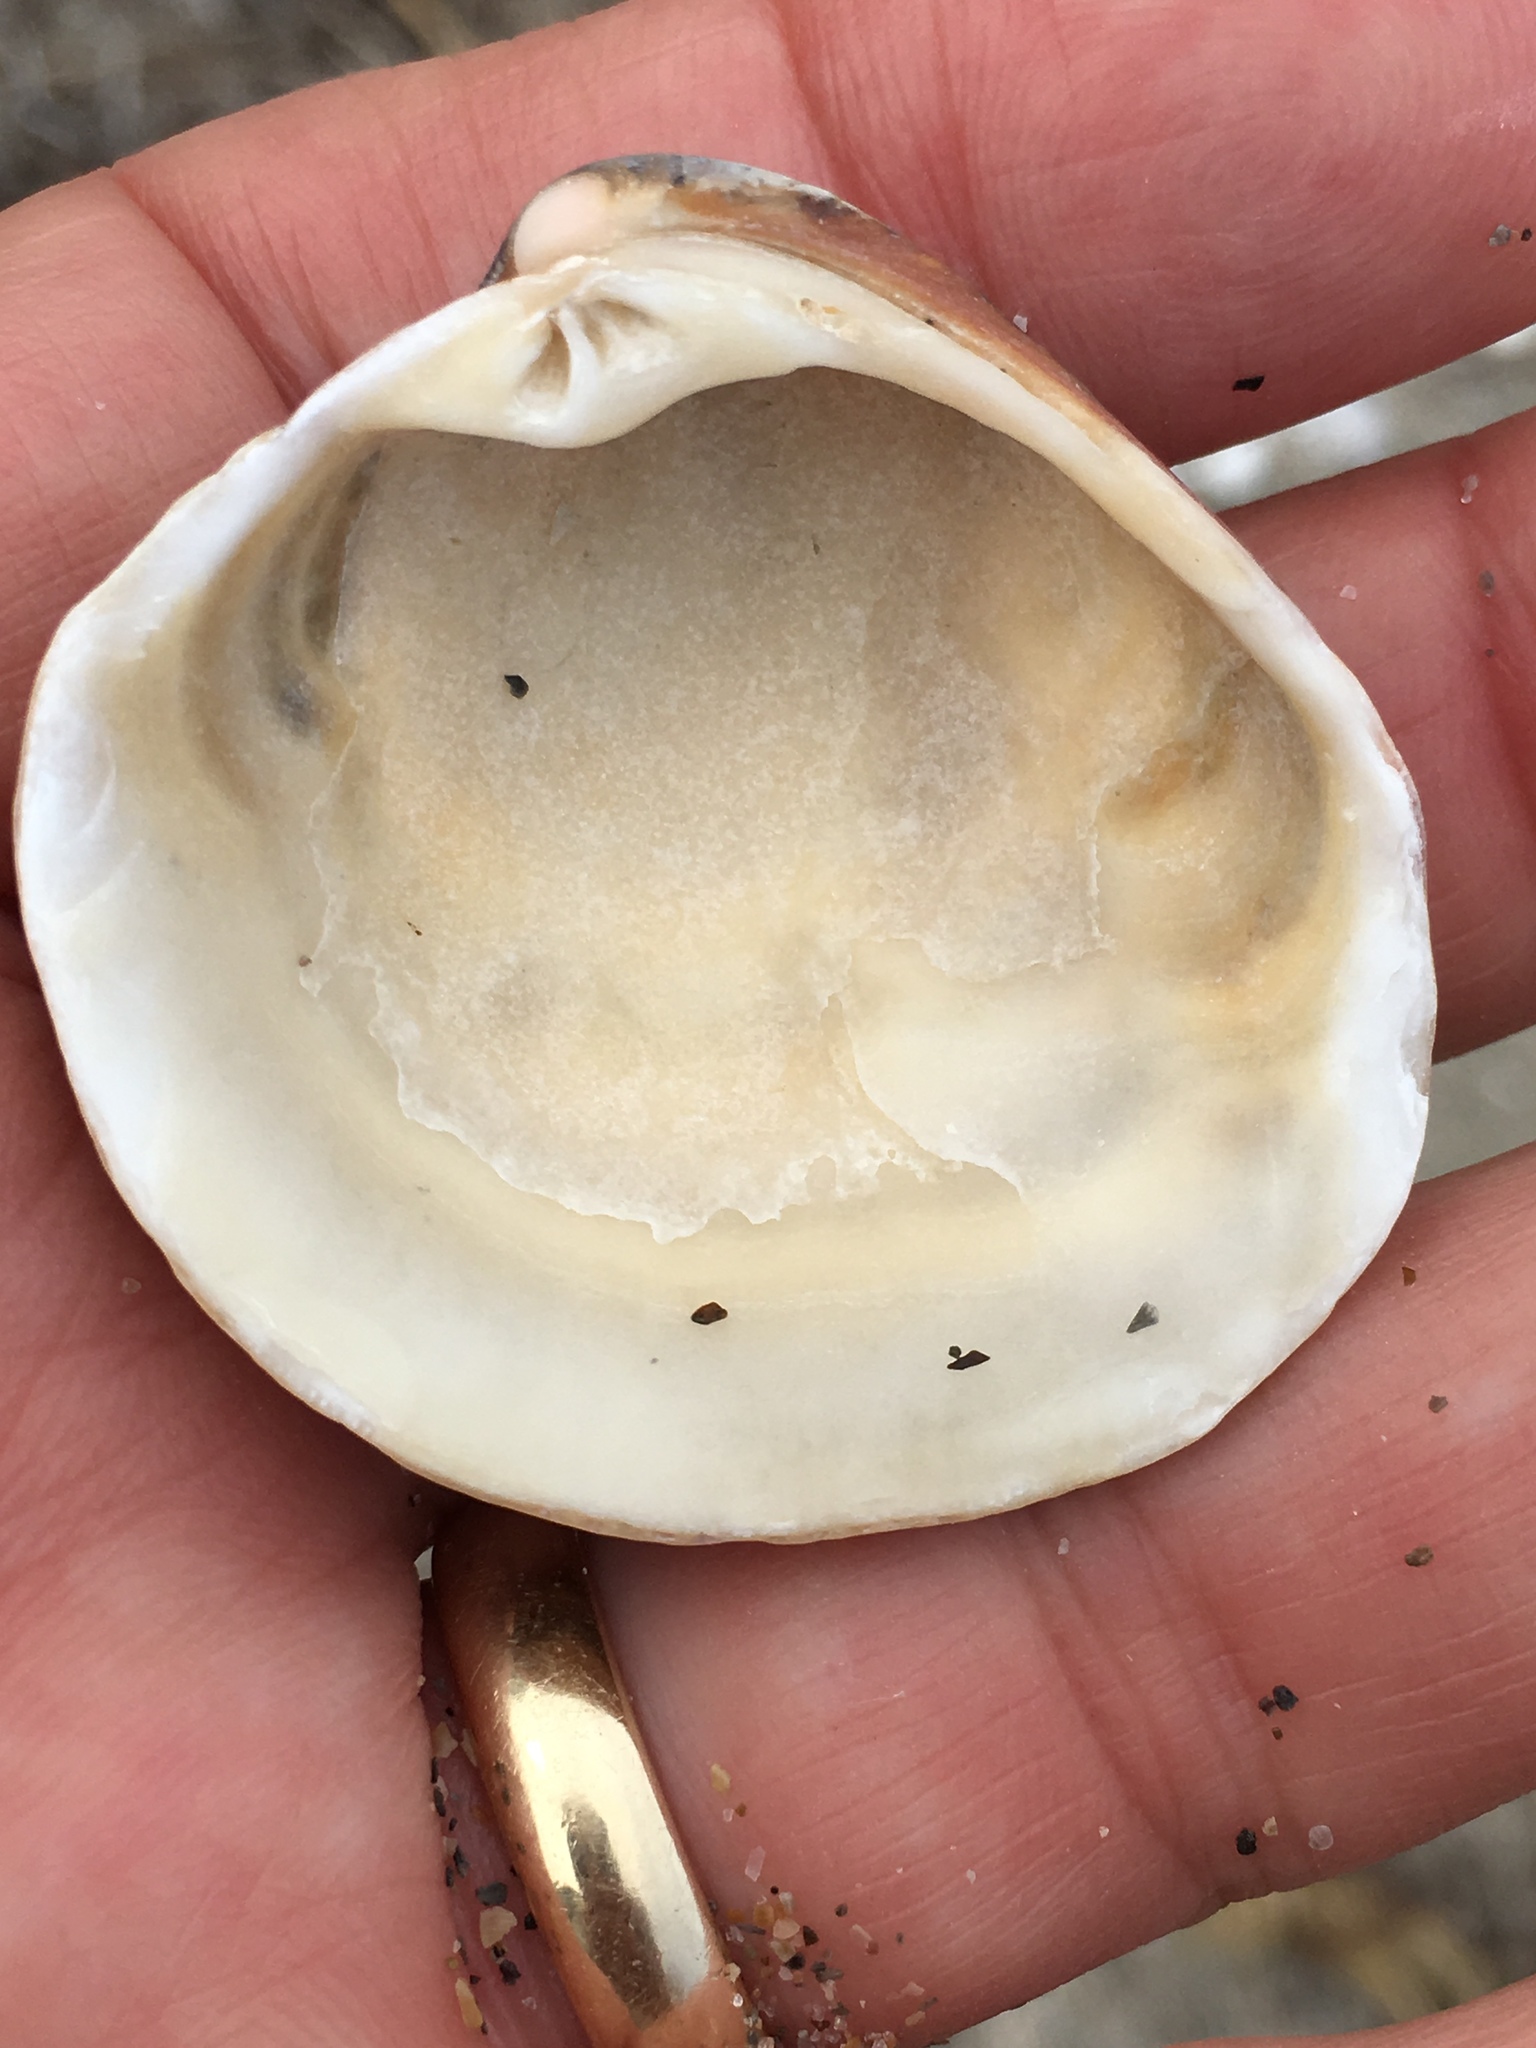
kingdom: Animalia
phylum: Mollusca
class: Bivalvia
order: Venerida
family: Veneridae
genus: Chionopsis
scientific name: Chionopsis intapurpurea
